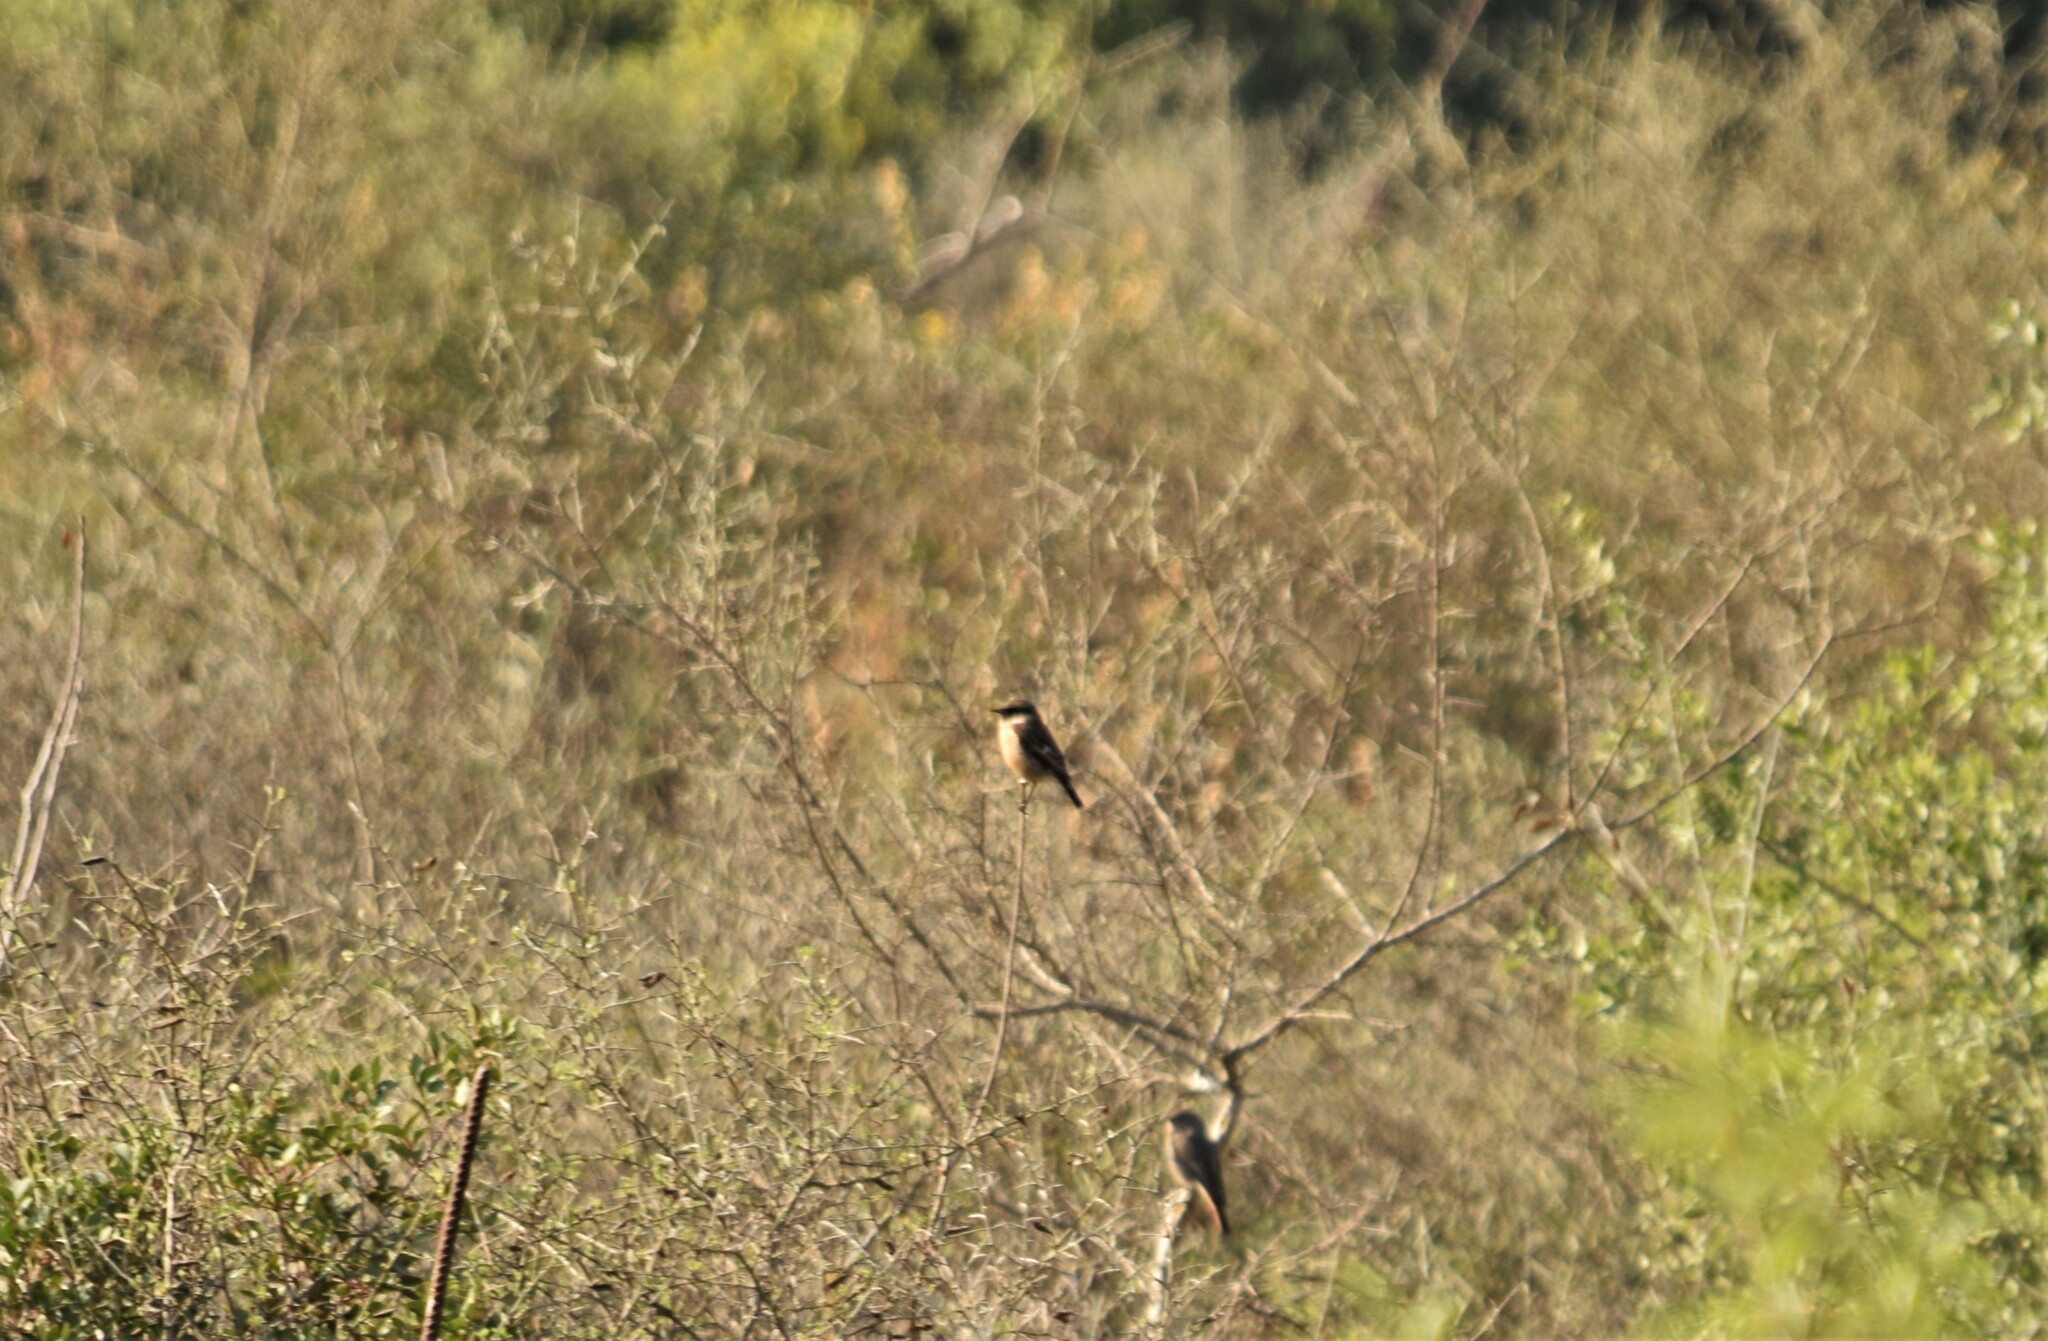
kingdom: Animalia
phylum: Chordata
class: Aves
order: Passeriformes
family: Muscicapidae
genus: Saxicola
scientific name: Saxicola rubicola
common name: European stonechat
